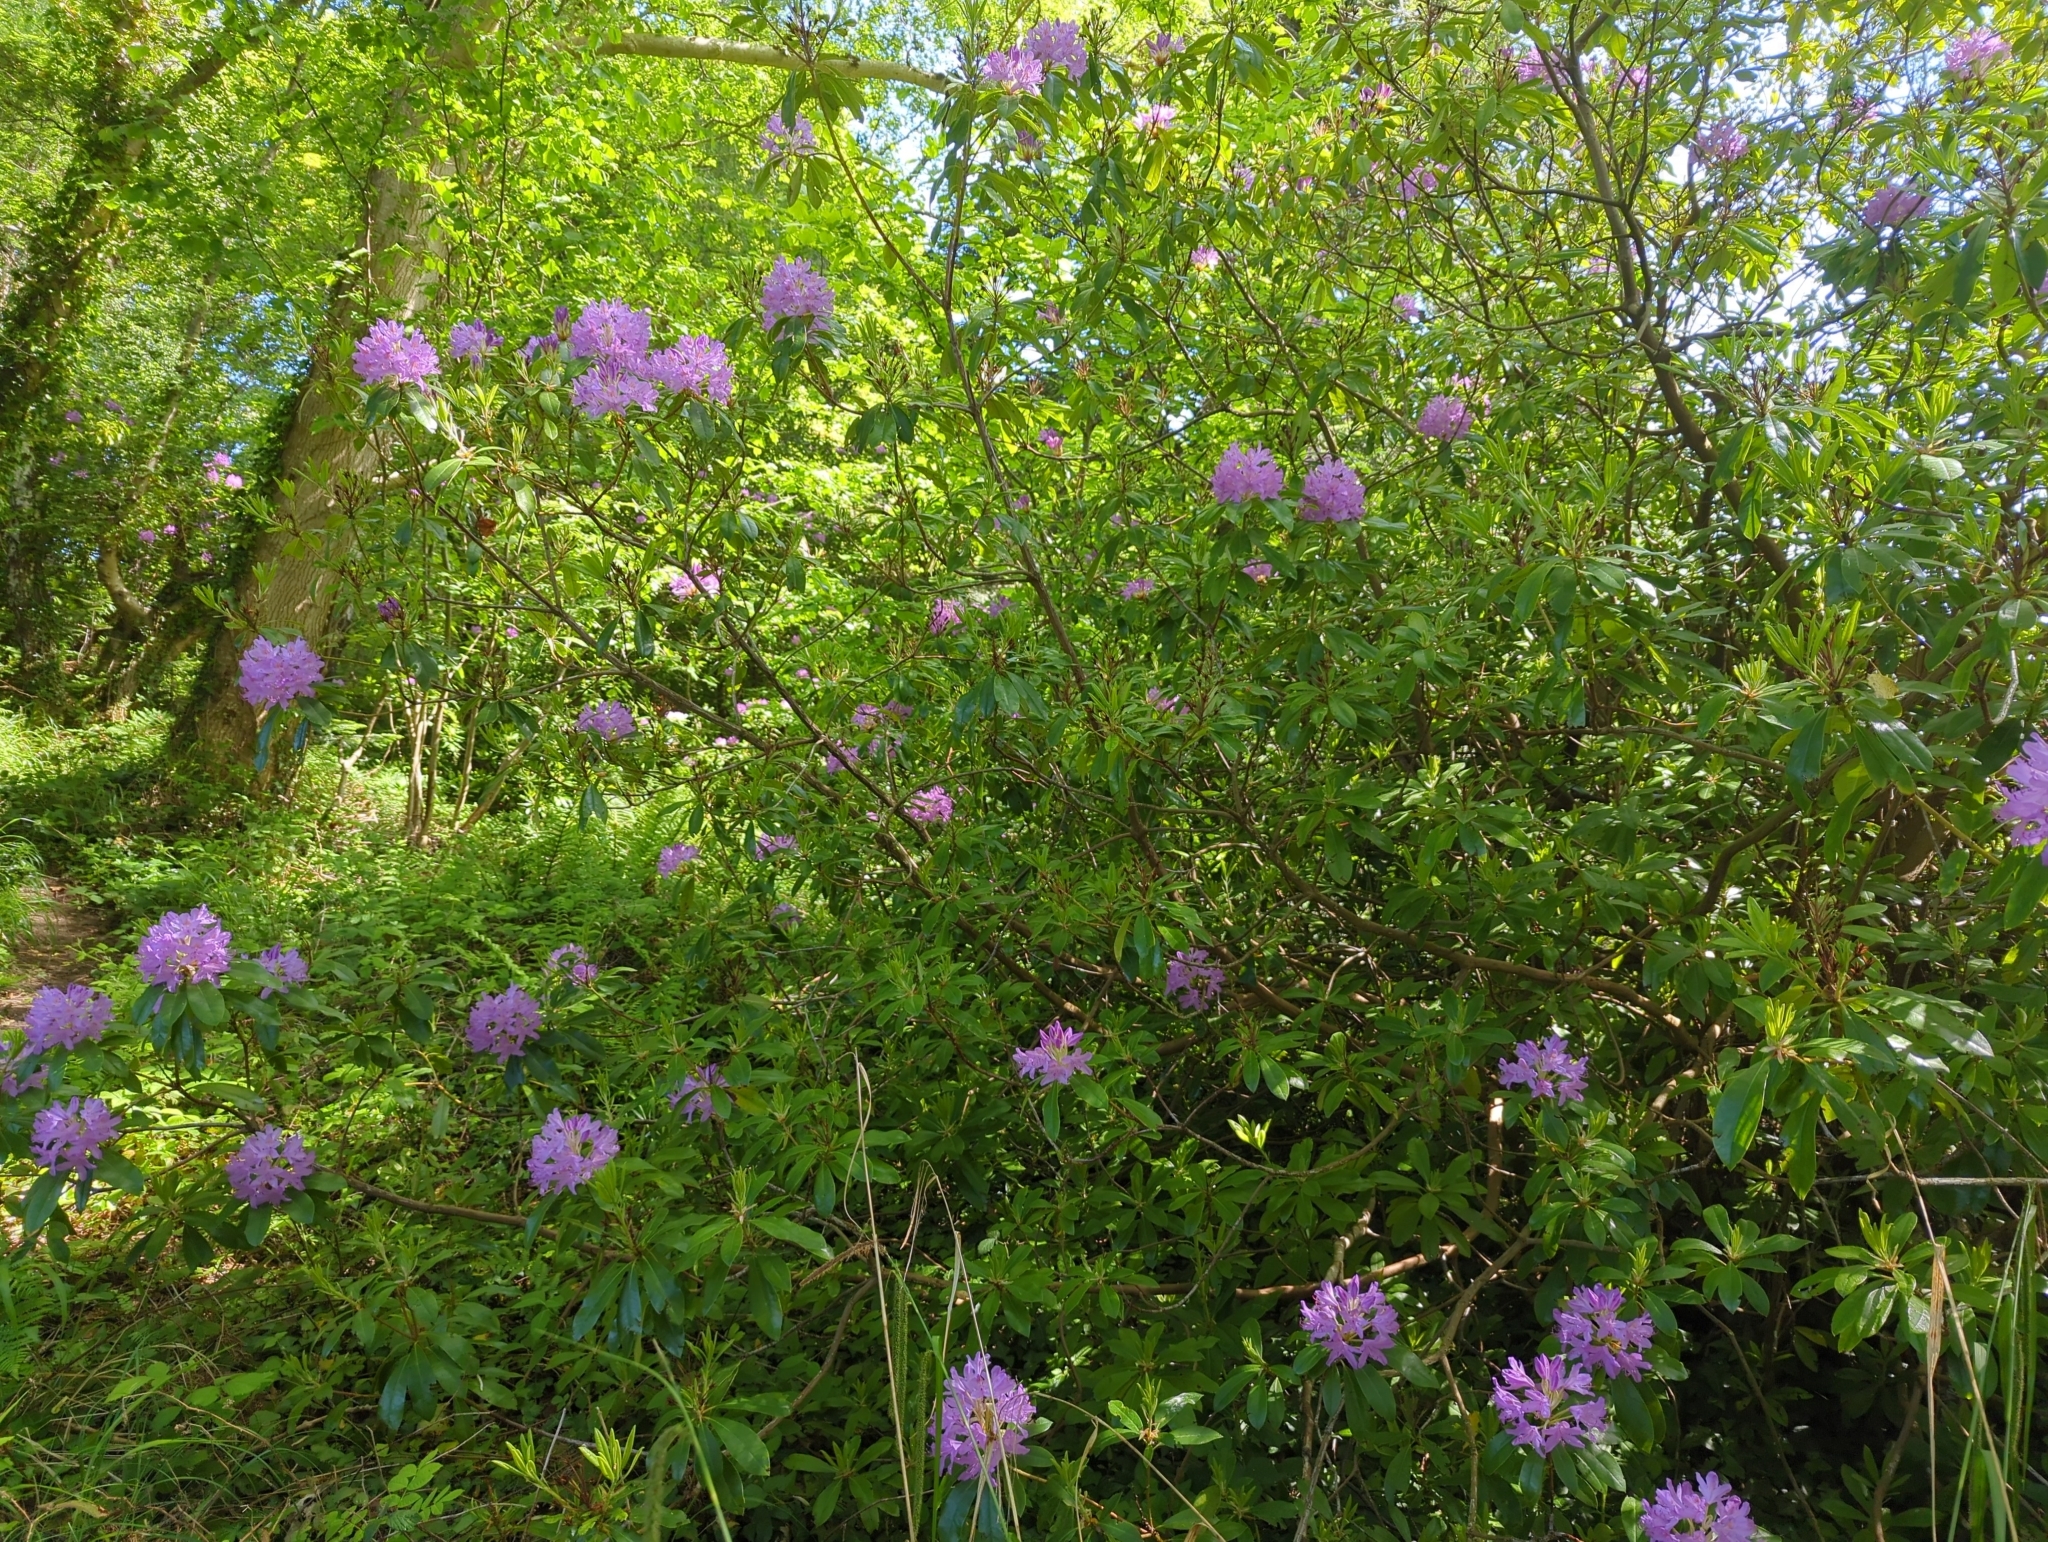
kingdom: Plantae
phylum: Tracheophyta
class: Magnoliopsida
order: Ericales
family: Ericaceae
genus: Rhododendron
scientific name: Rhododendron ponticum
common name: Rhododendron
